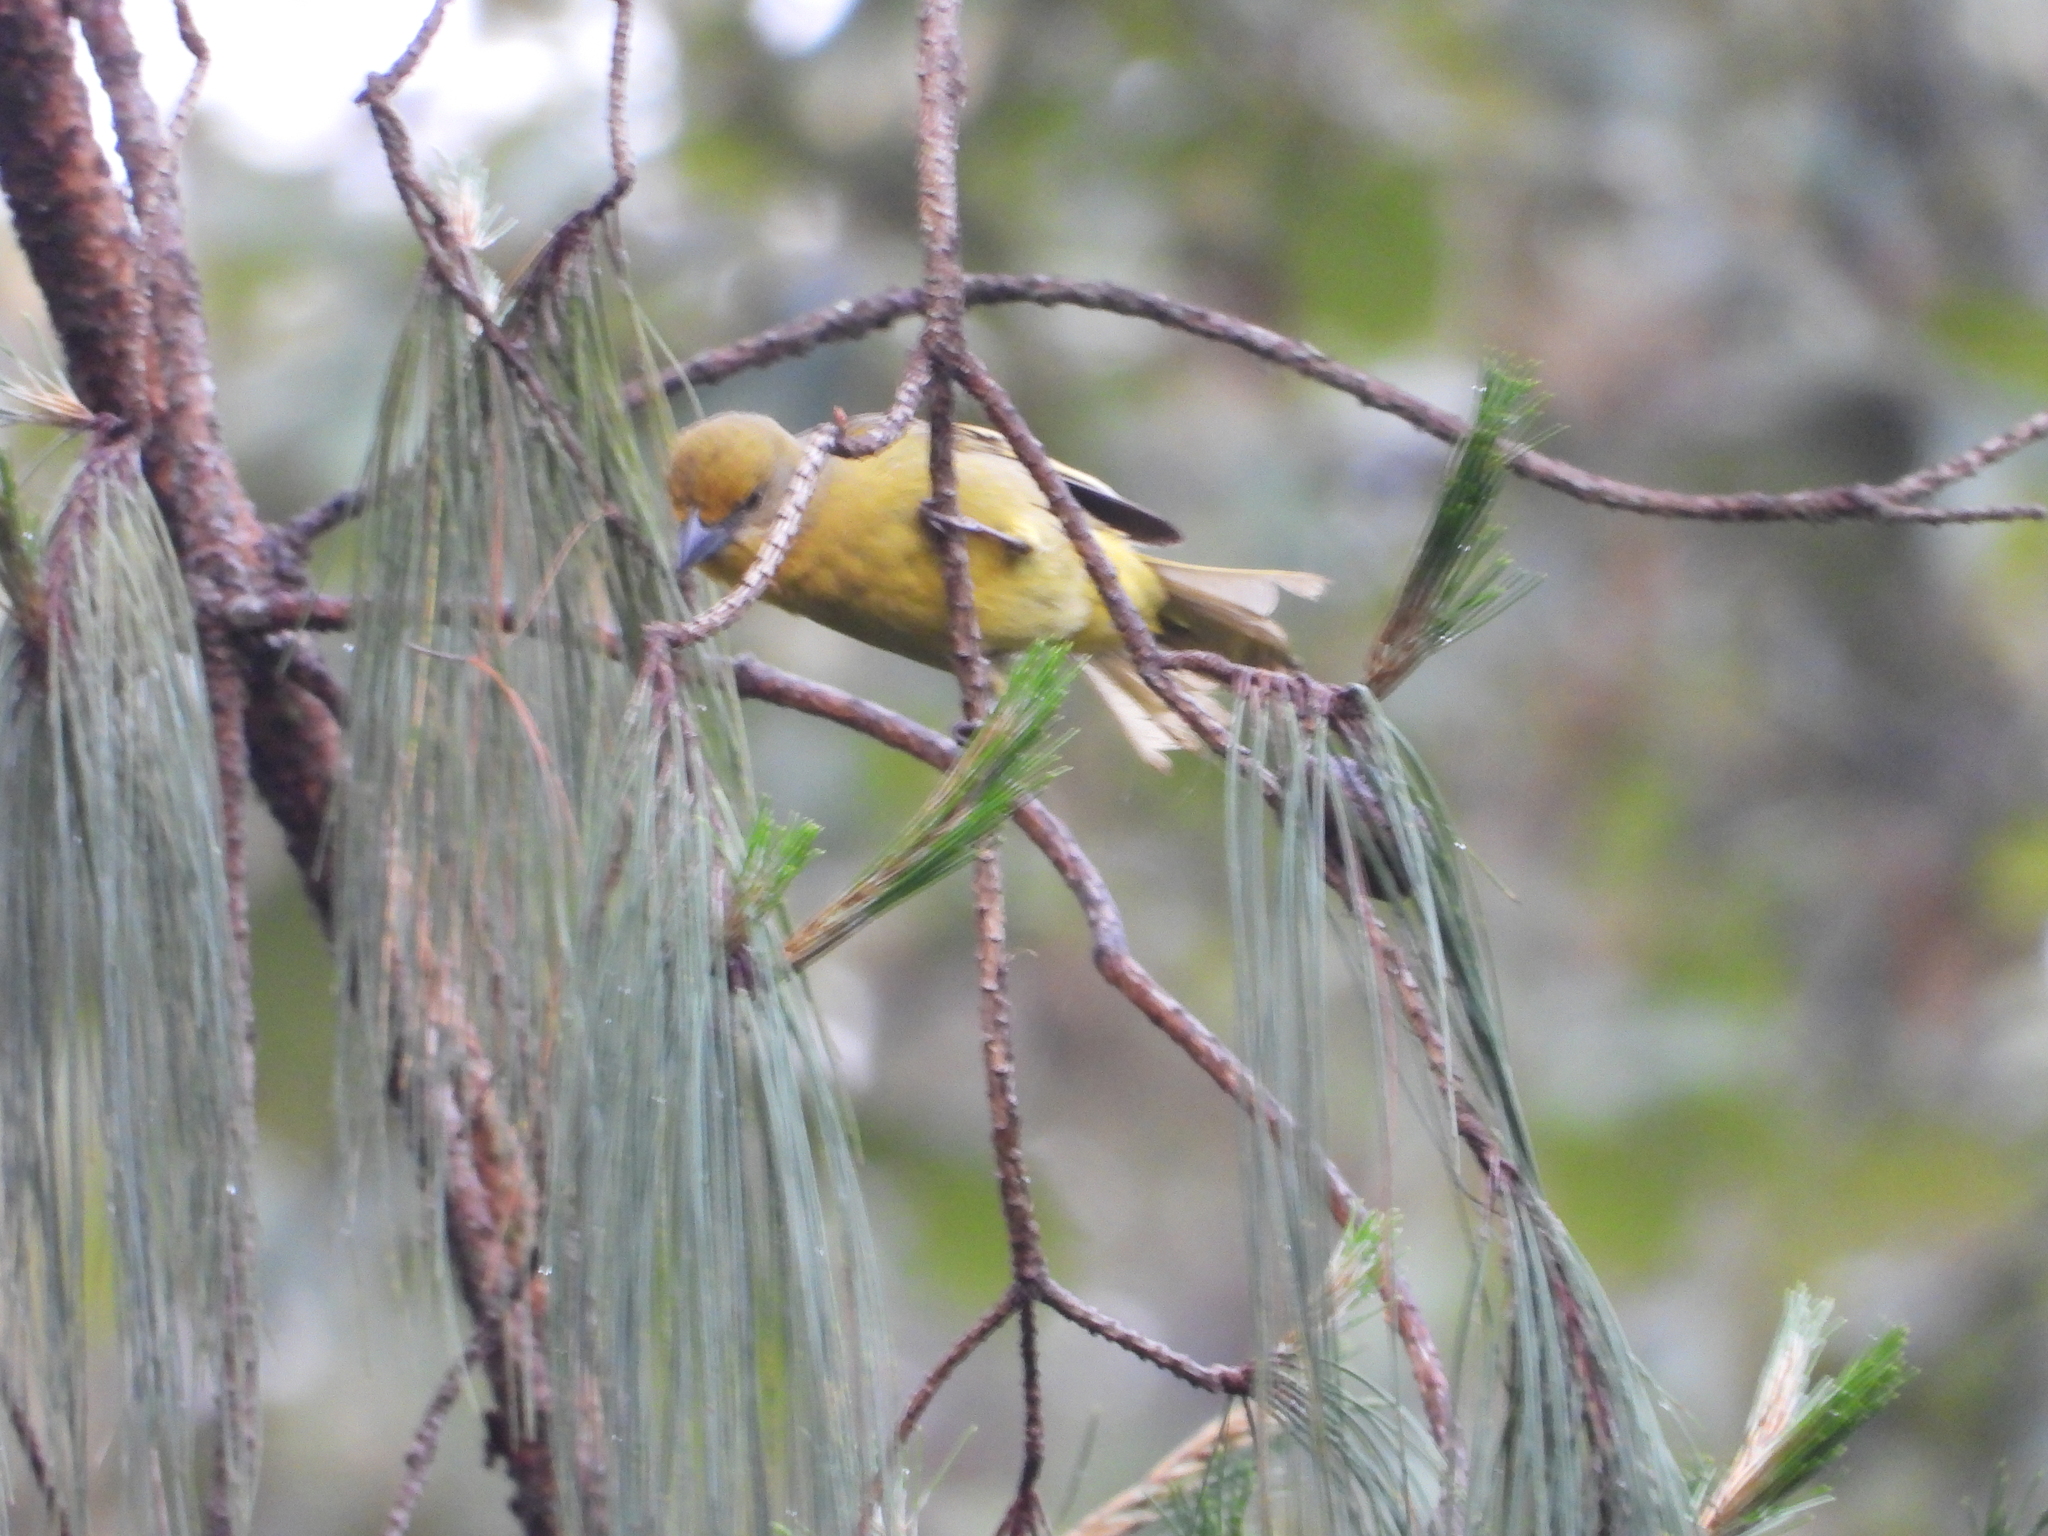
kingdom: Animalia
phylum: Chordata
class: Aves
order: Passeriformes
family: Cardinalidae
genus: Piranga
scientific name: Piranga flava
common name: Red tanager
